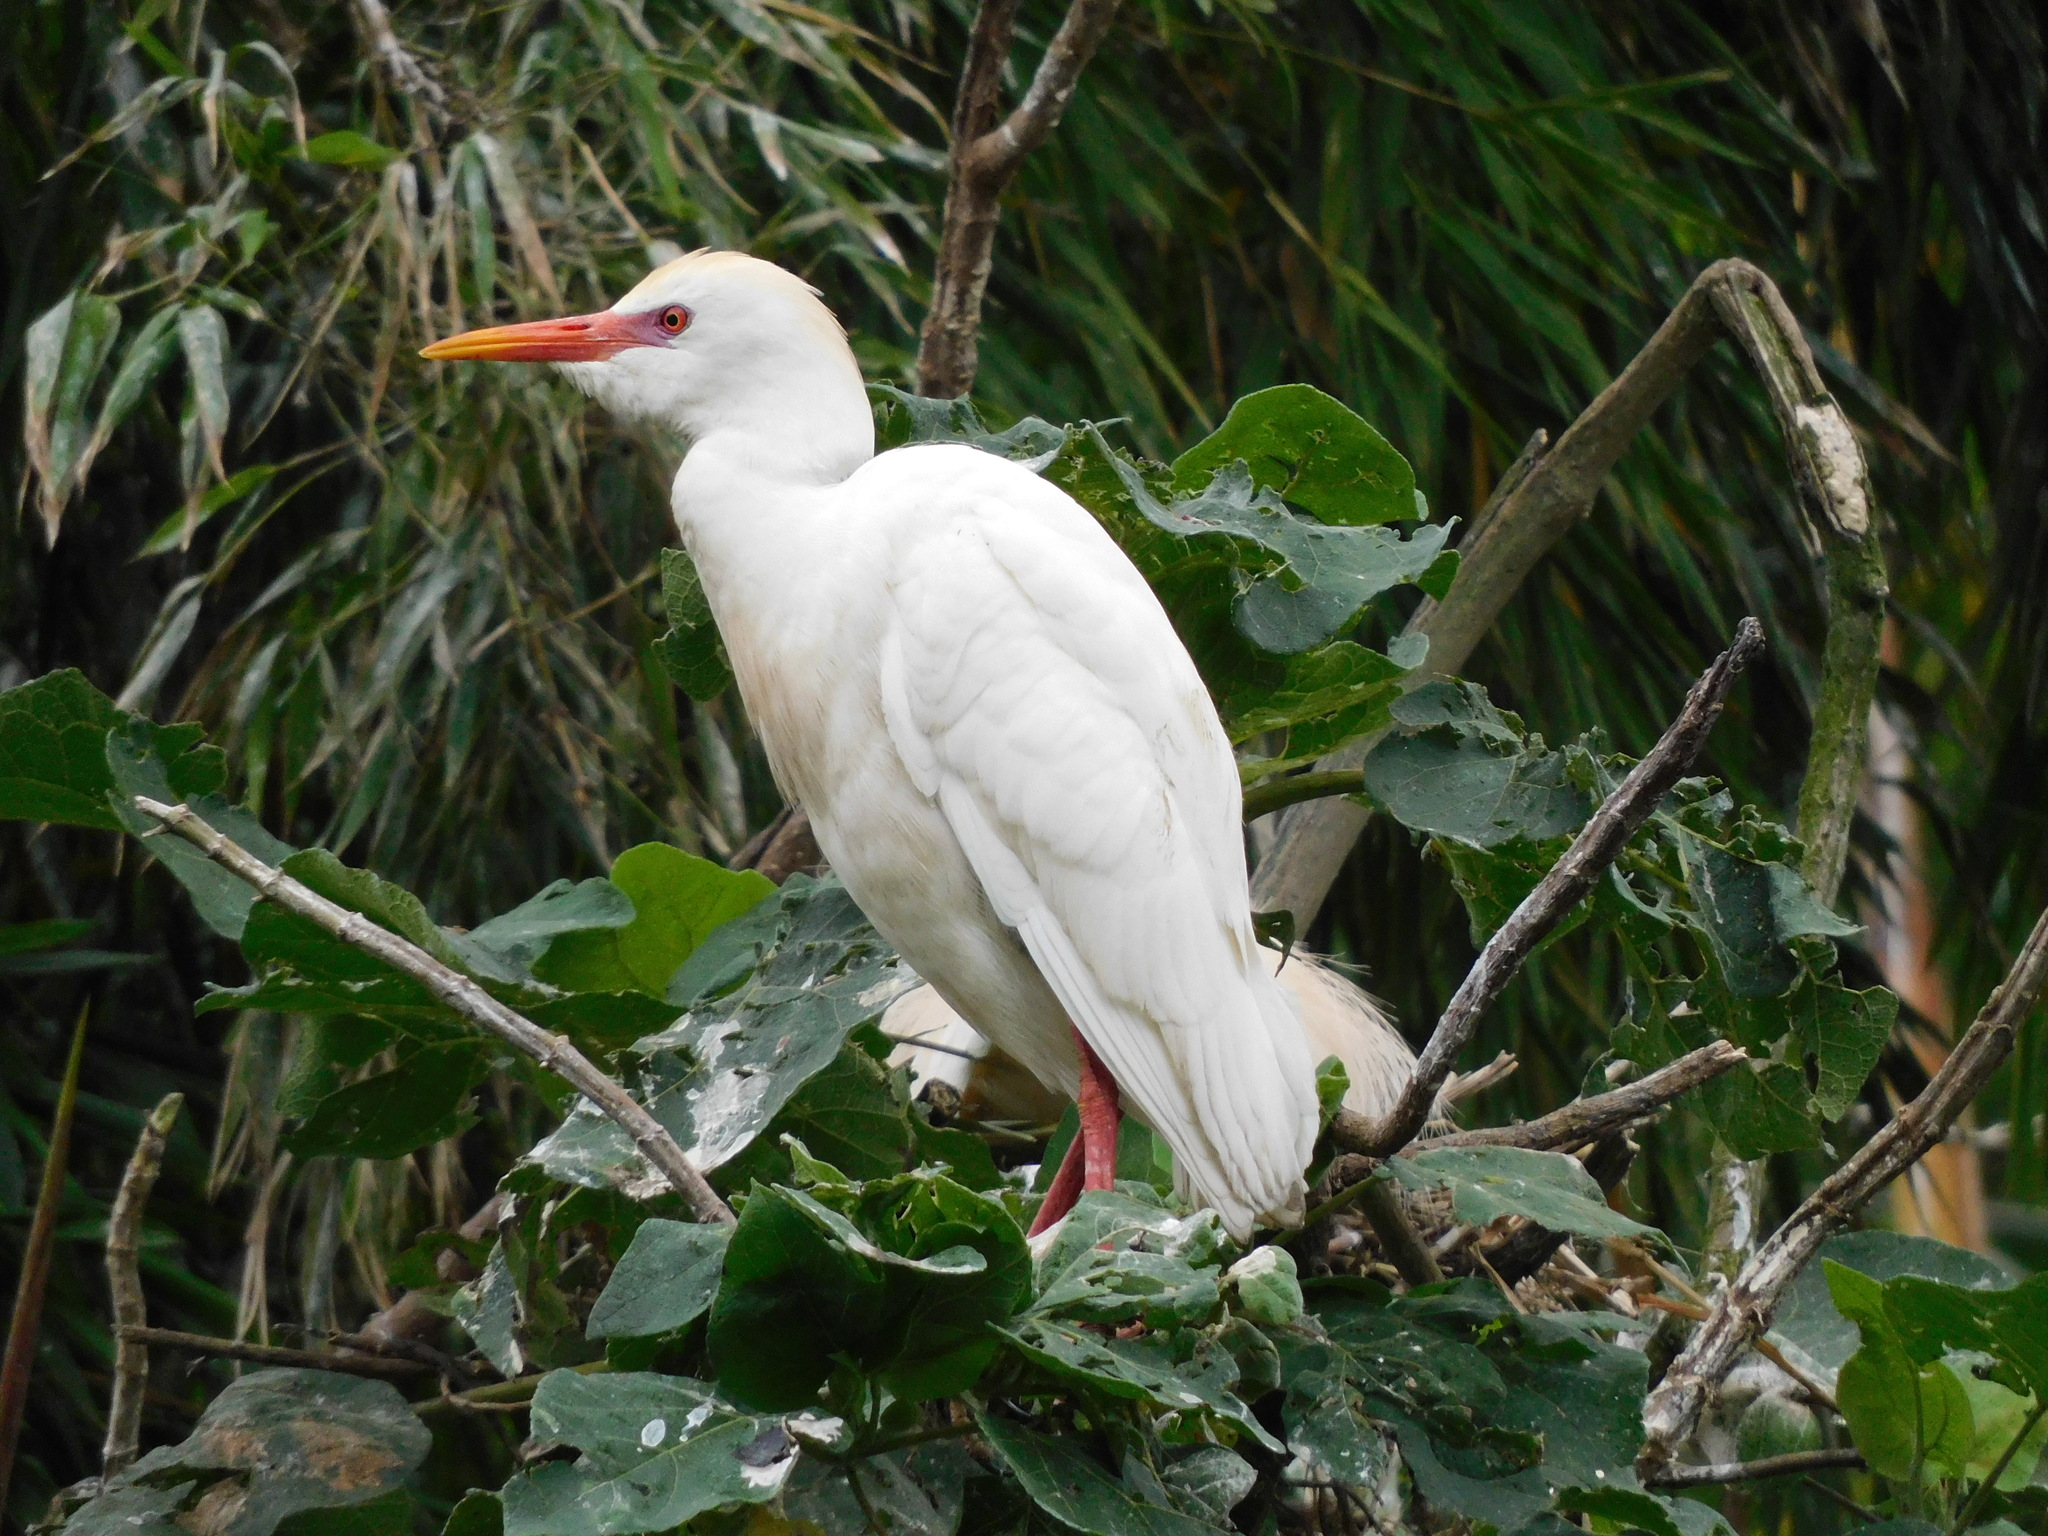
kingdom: Animalia
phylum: Chordata
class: Aves
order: Pelecaniformes
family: Ardeidae
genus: Bubulcus
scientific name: Bubulcus ibis
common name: Cattle egret
